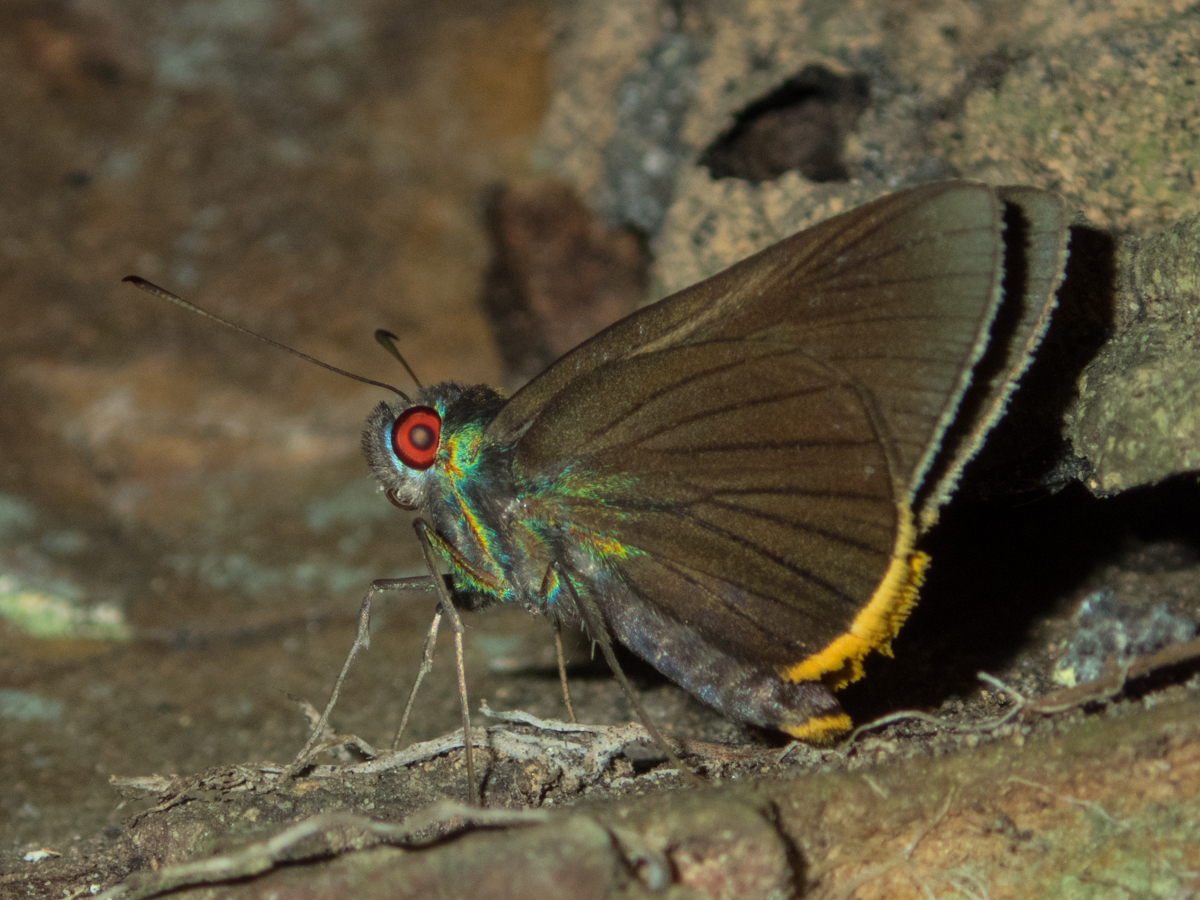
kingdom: Animalia
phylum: Arthropoda
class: Insecta
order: Lepidoptera
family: Hesperiidae
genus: Matapa
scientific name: Matapa sasivarna
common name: Black-veined redeye
